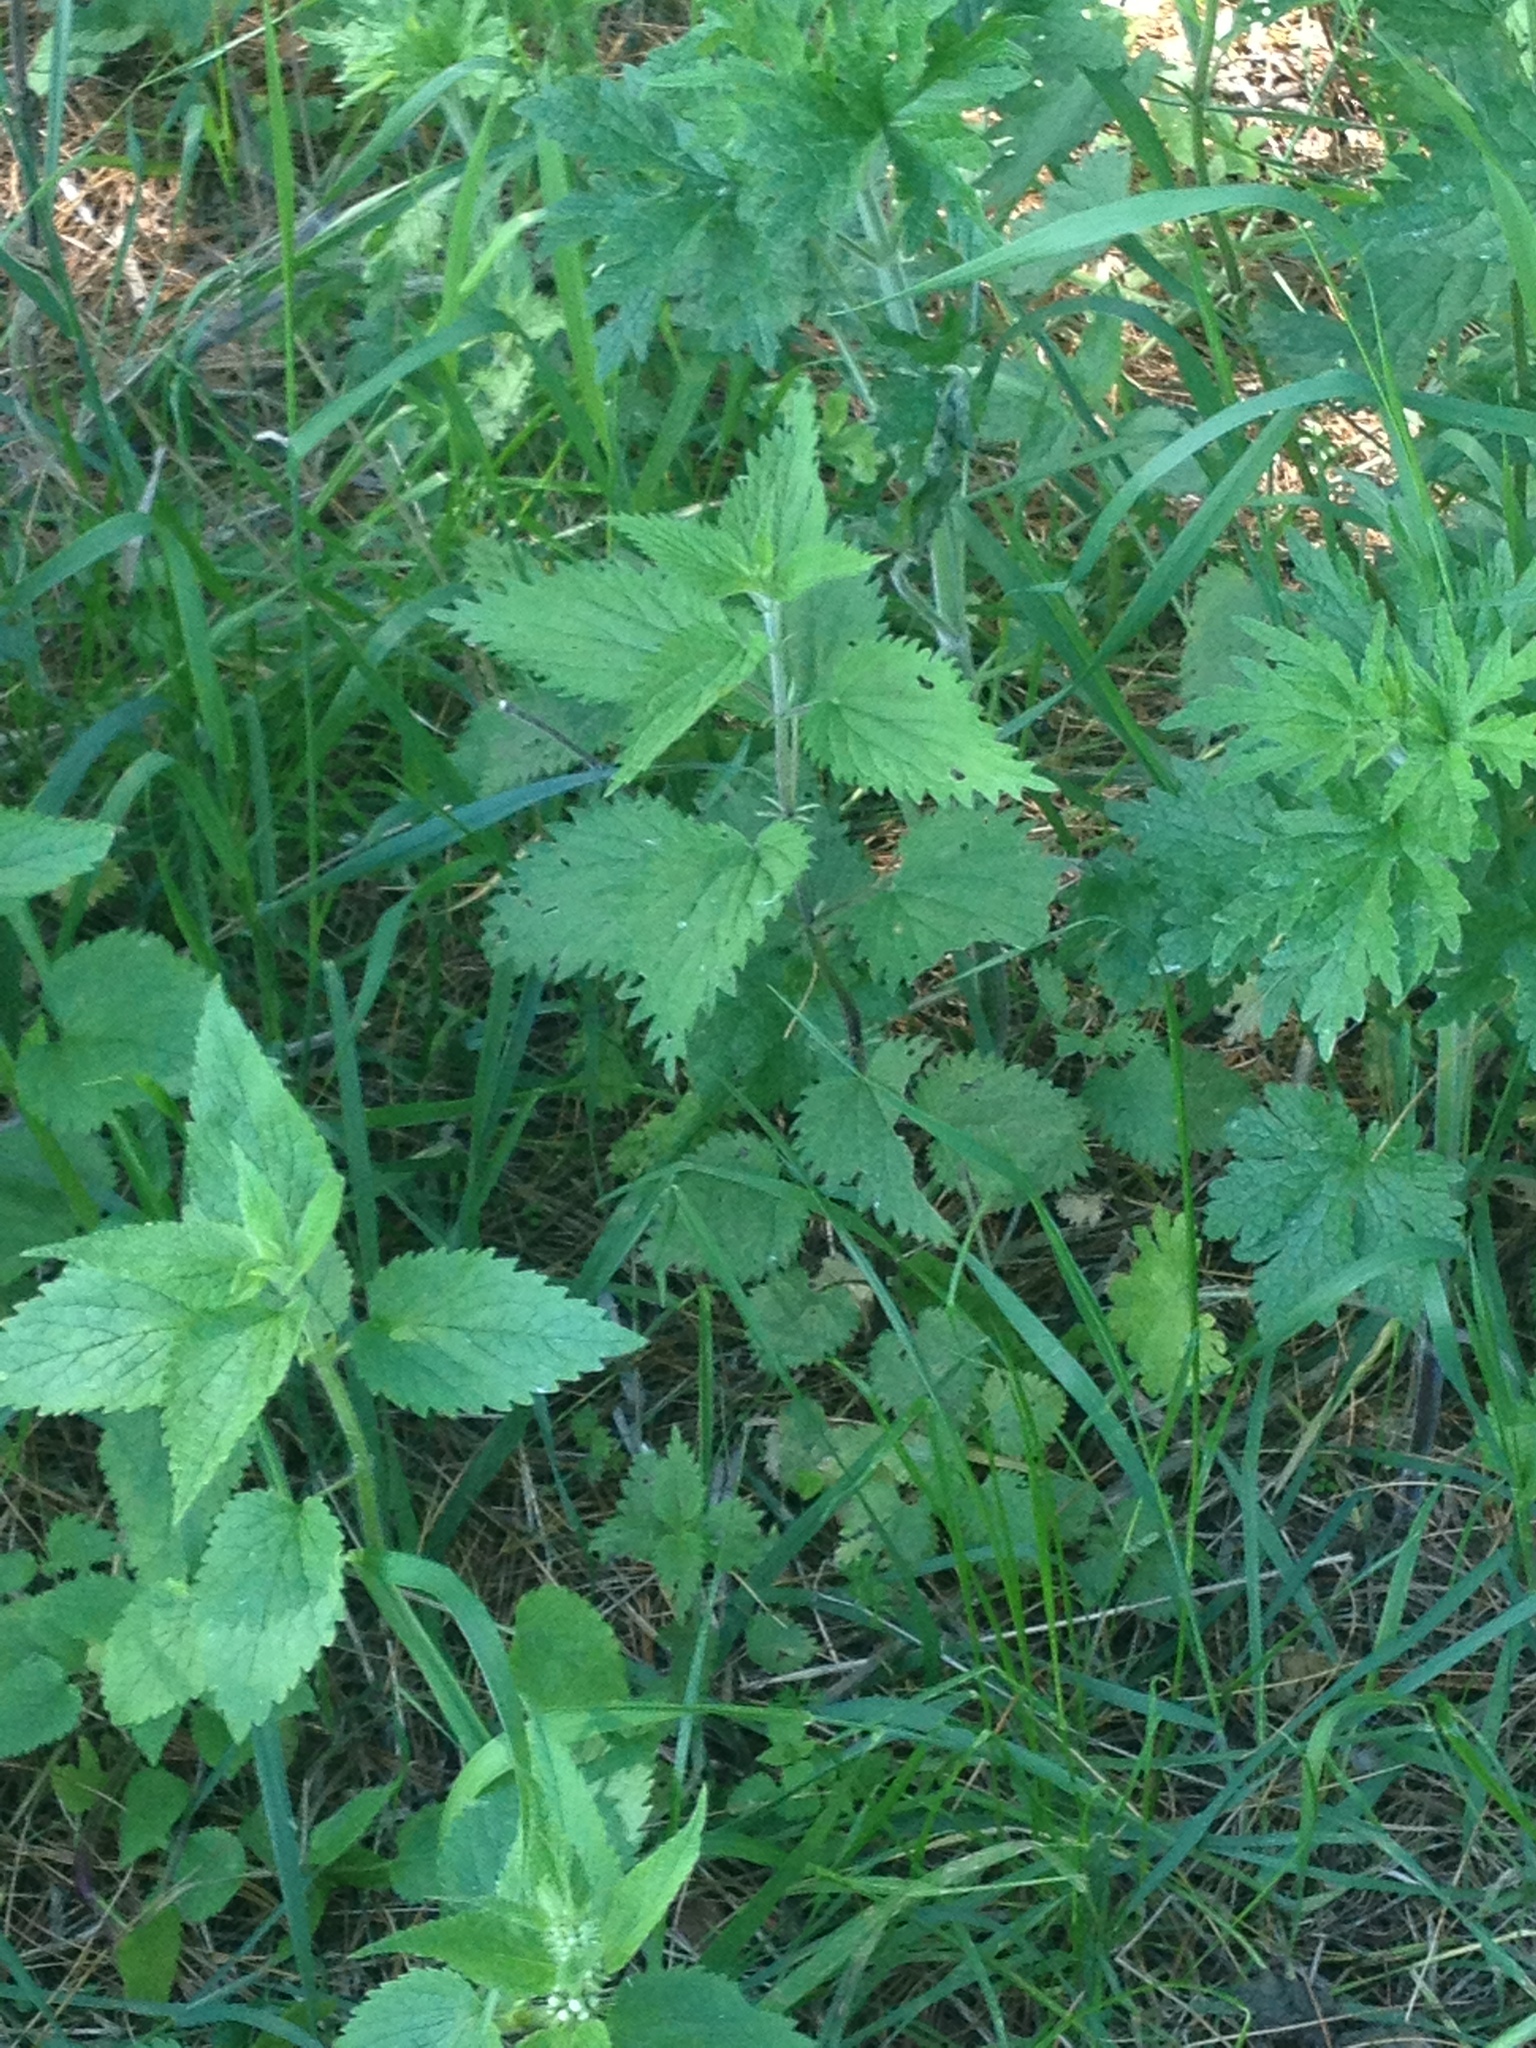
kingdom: Plantae
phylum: Tracheophyta
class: Magnoliopsida
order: Rosales
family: Urticaceae
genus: Urtica
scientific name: Urtica dioica
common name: Common nettle
